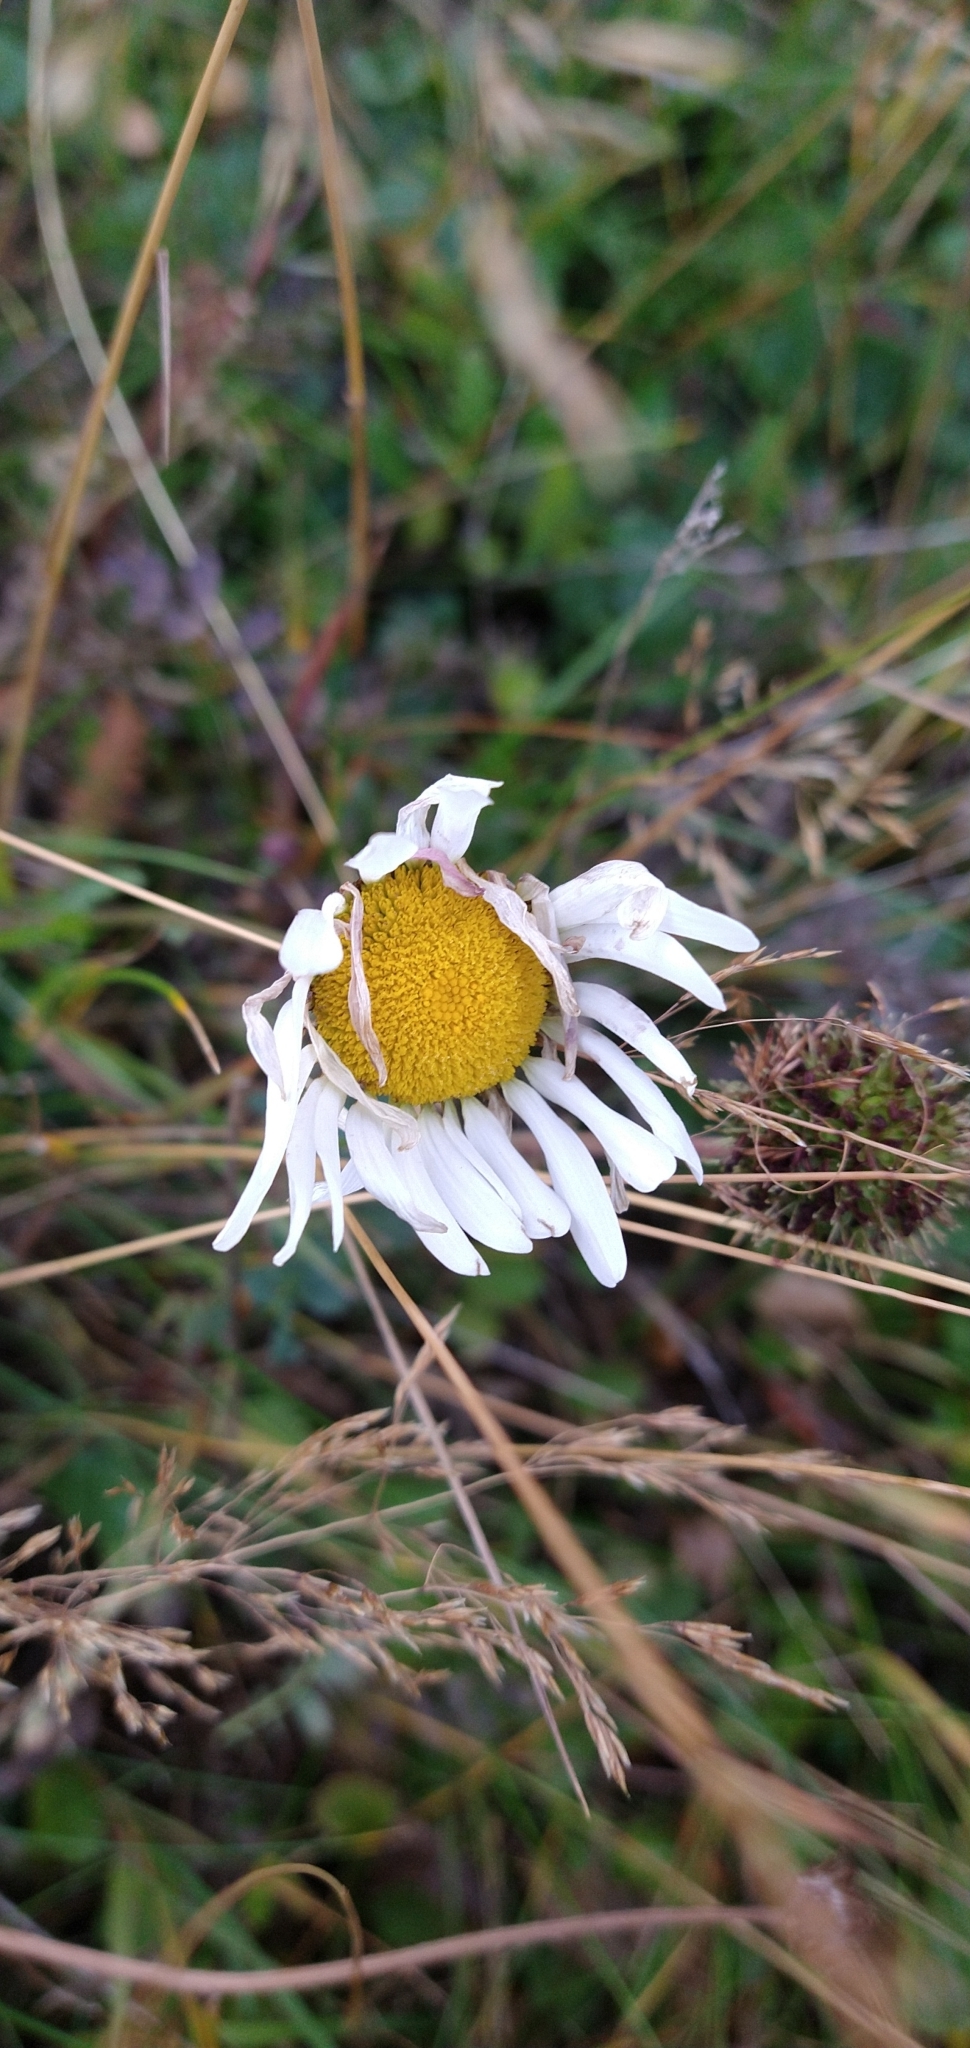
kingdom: Plantae
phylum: Tracheophyta
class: Magnoliopsida
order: Asterales
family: Asteraceae
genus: Leucanthemum
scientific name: Leucanthemum vulgare
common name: Oxeye daisy
